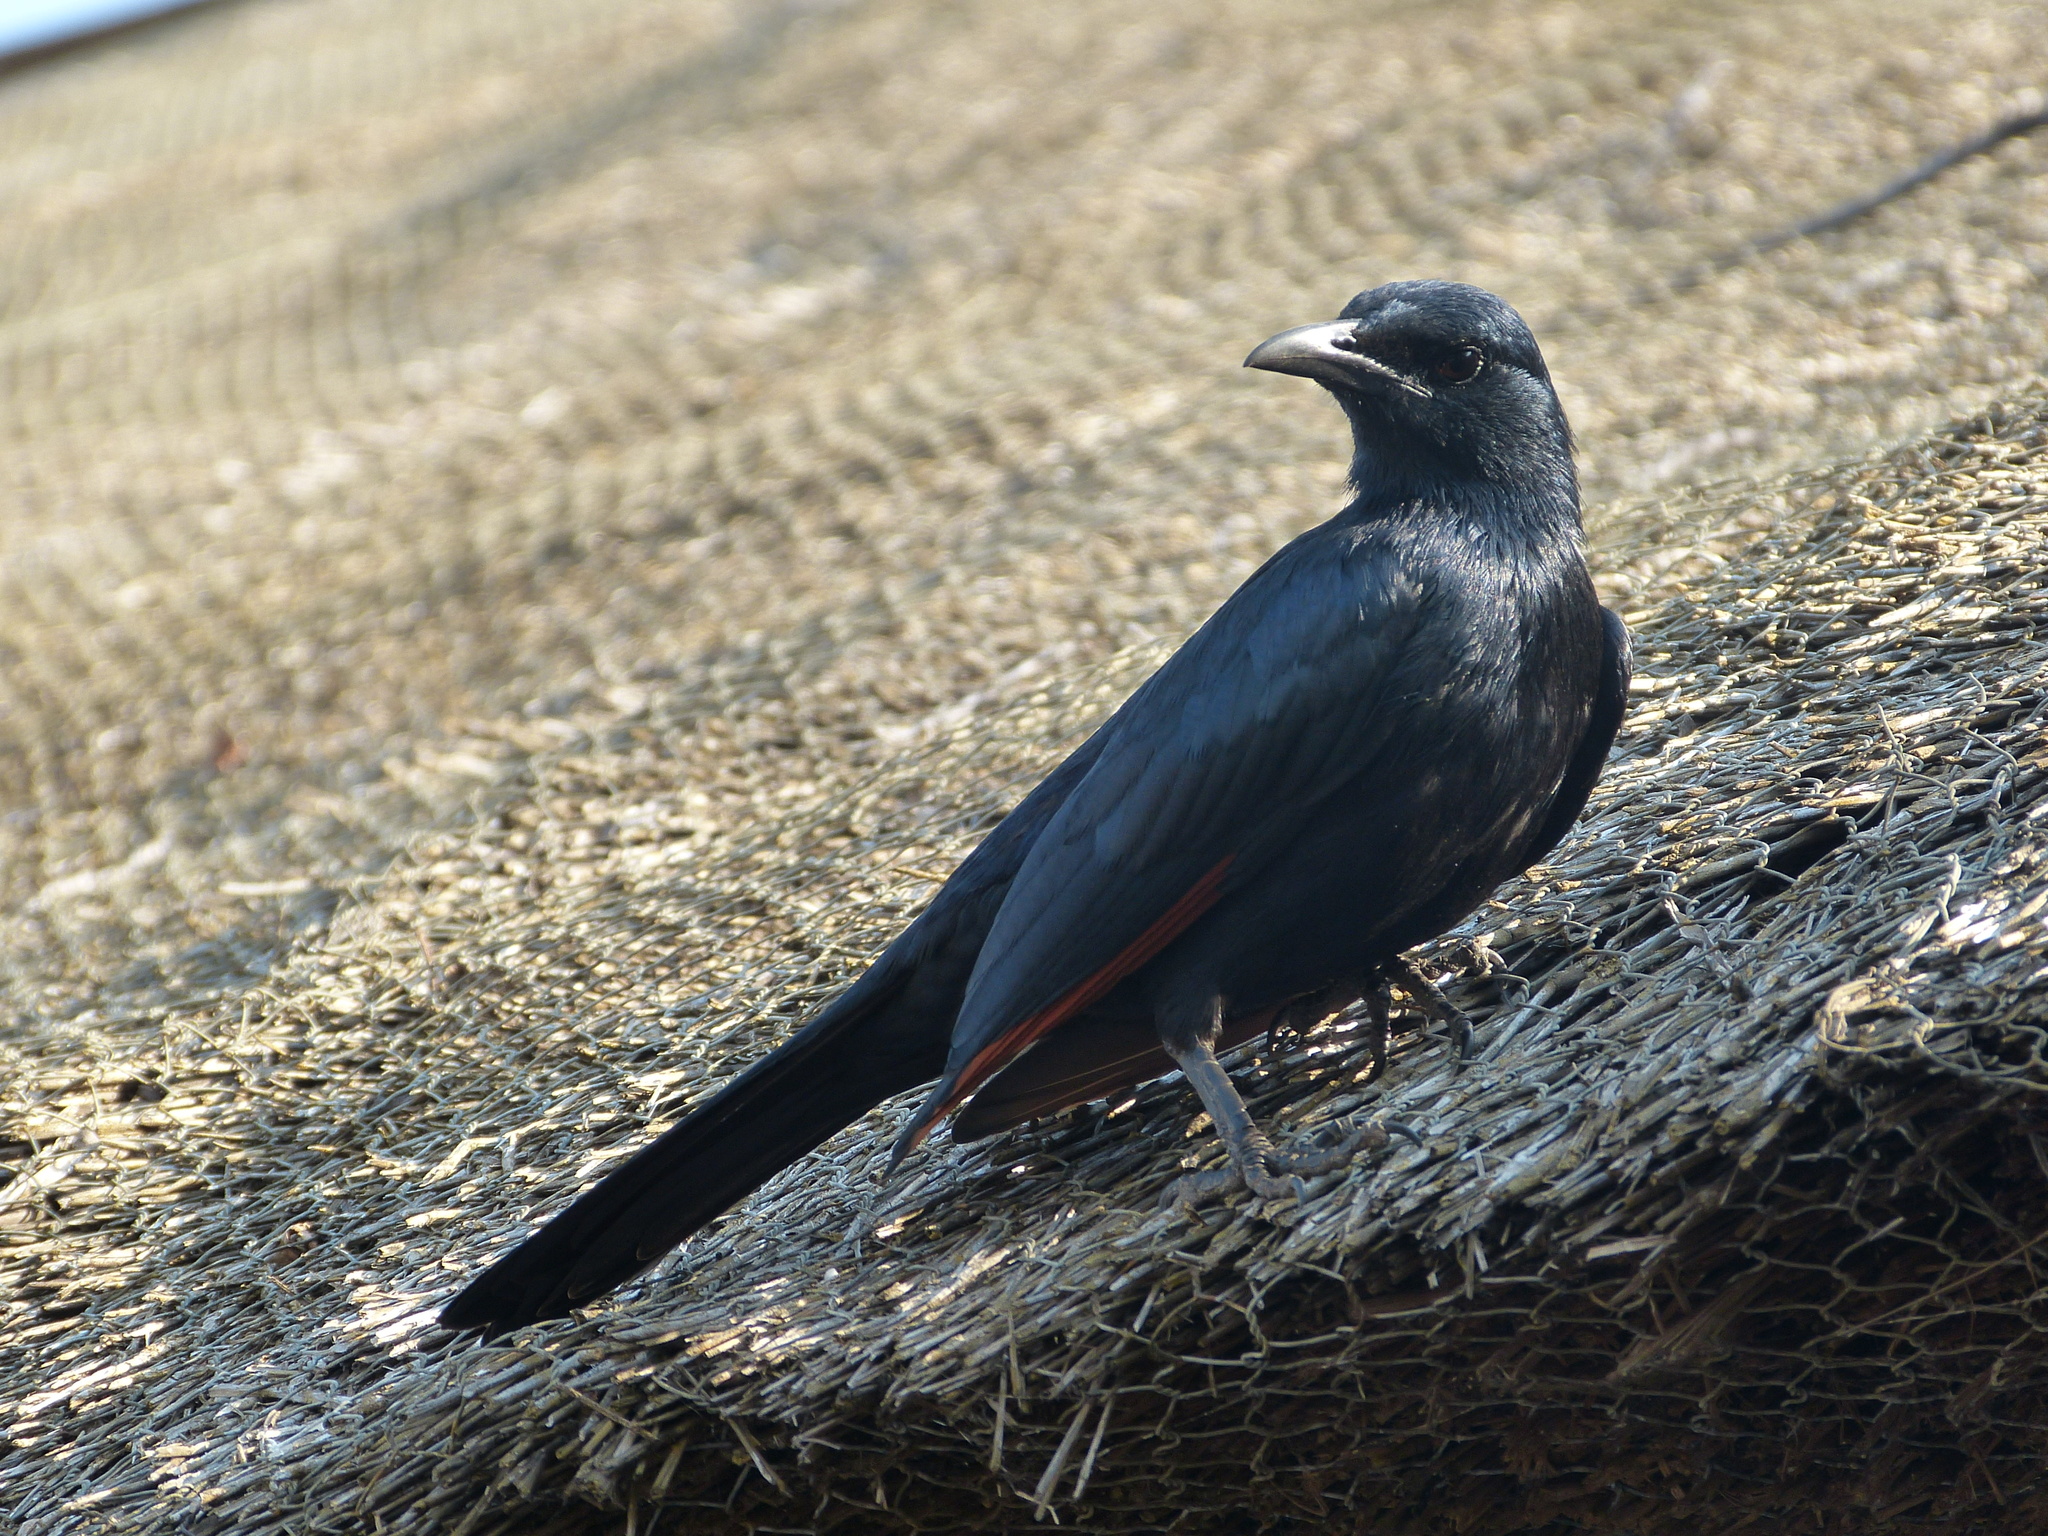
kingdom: Animalia
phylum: Chordata
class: Aves
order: Passeriformes
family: Sturnidae
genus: Onychognathus
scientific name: Onychognathus morio
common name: Red-winged starling
